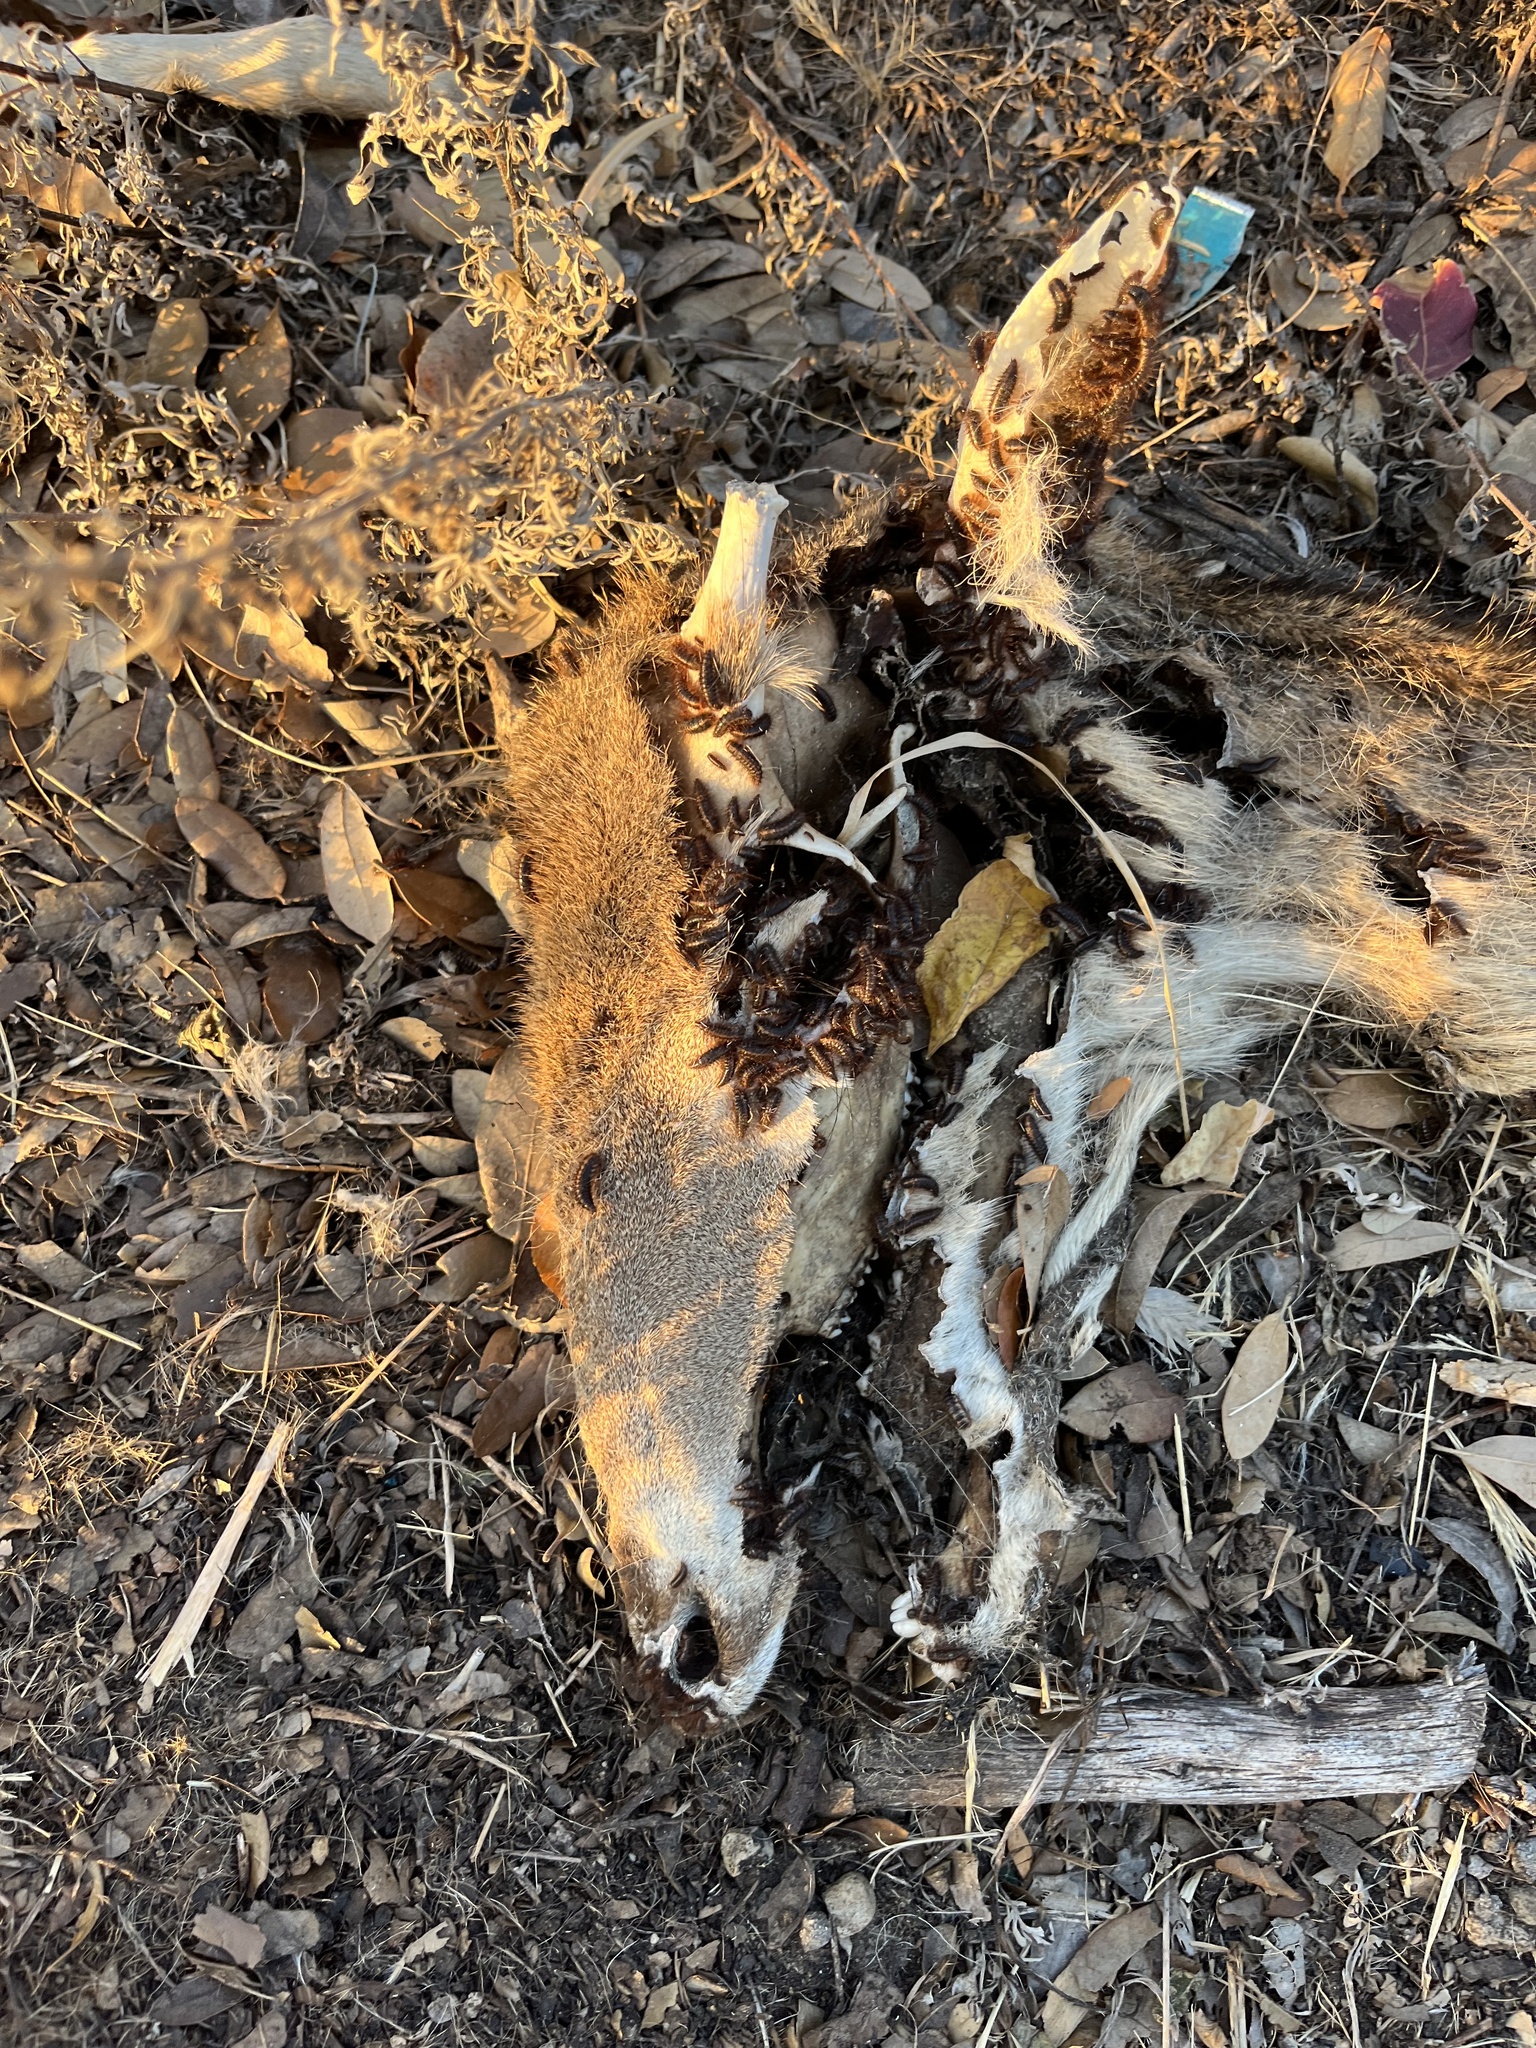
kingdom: Animalia
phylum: Chordata
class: Mammalia
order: Artiodactyla
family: Cervidae
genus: Odocoileus
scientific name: Odocoileus virginianus
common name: White-tailed deer
